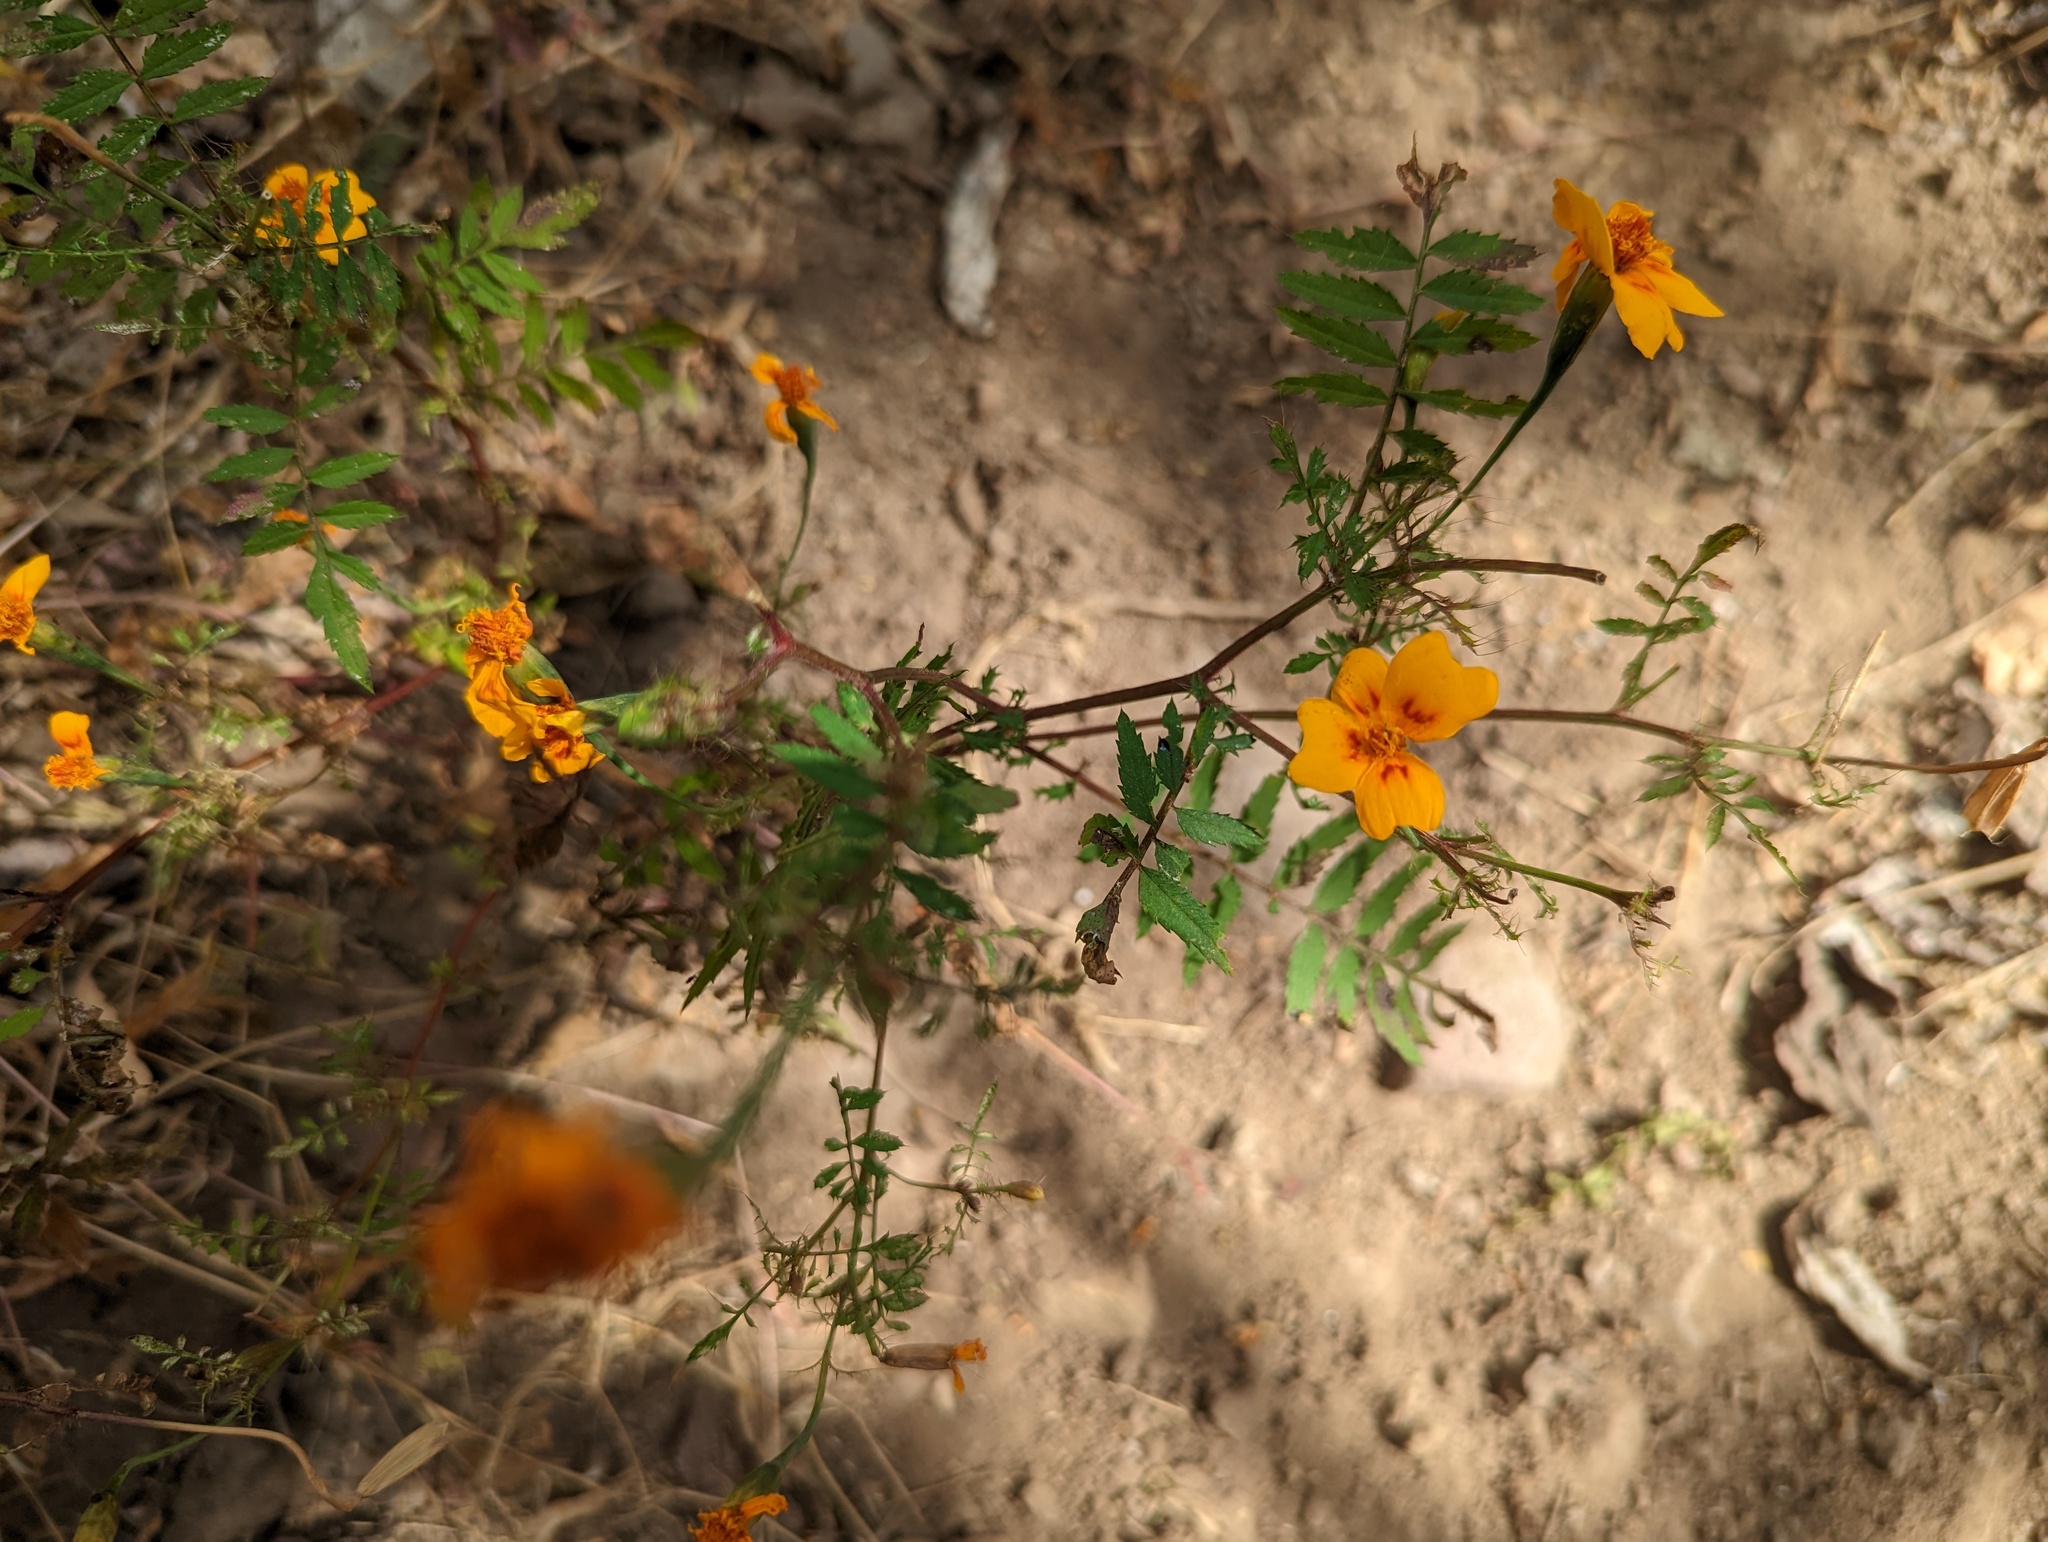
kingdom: Plantae
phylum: Tracheophyta
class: Magnoliopsida
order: Asterales
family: Asteraceae
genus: Tagetes
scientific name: Tagetes lunulata
